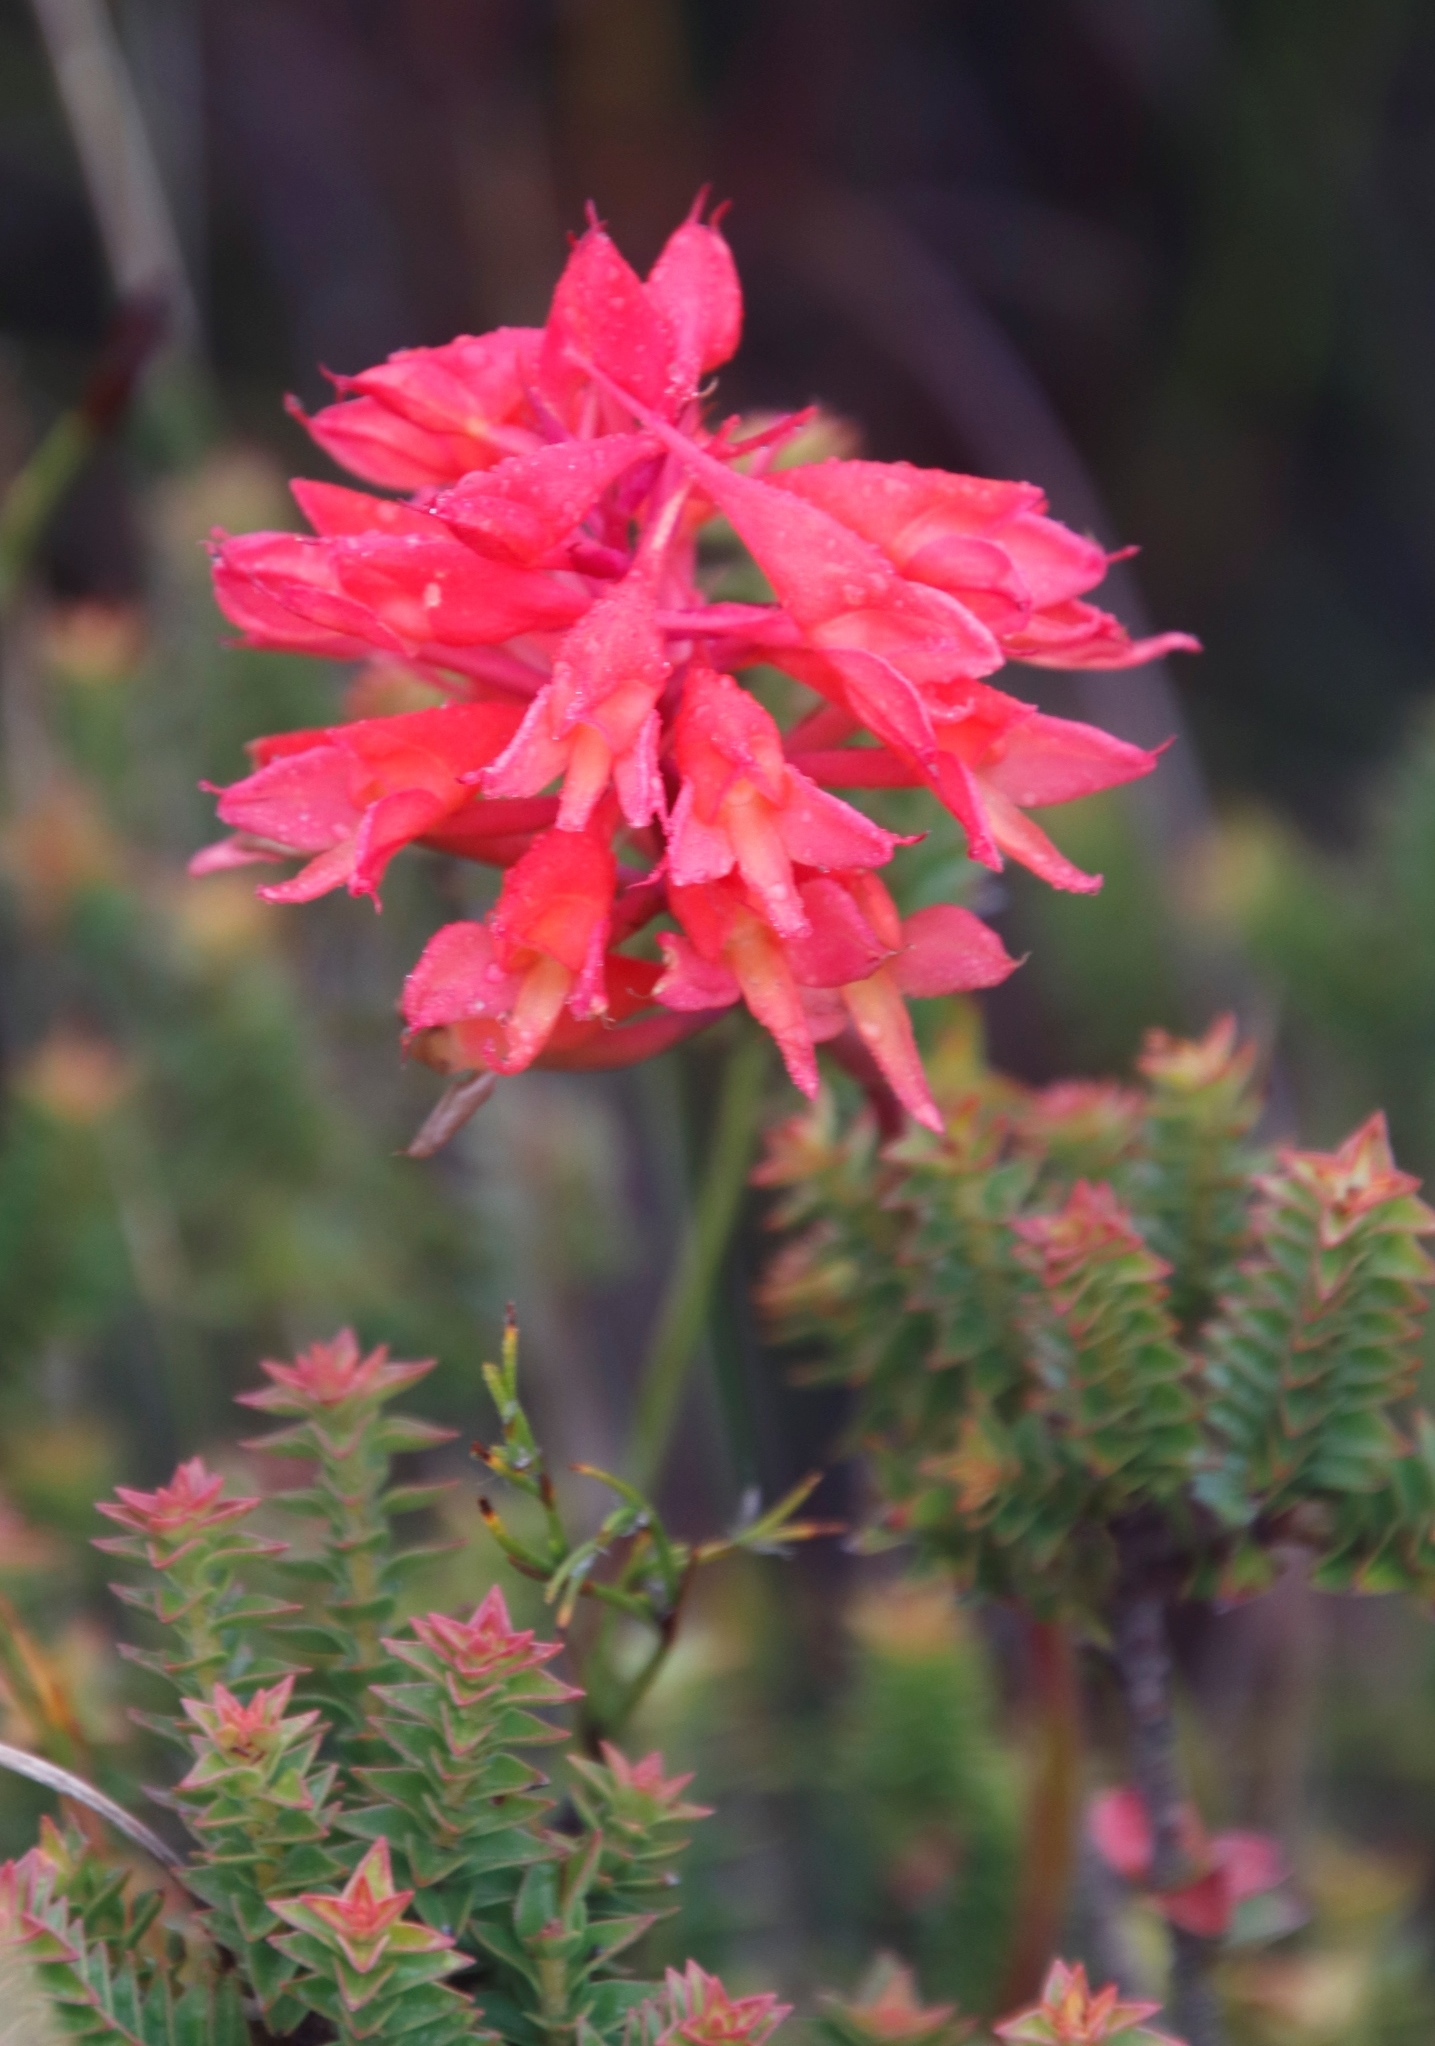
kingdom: Plantae
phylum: Tracheophyta
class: Liliopsida
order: Asparagales
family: Orchidaceae
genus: Disa
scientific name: Disa ferruginea
